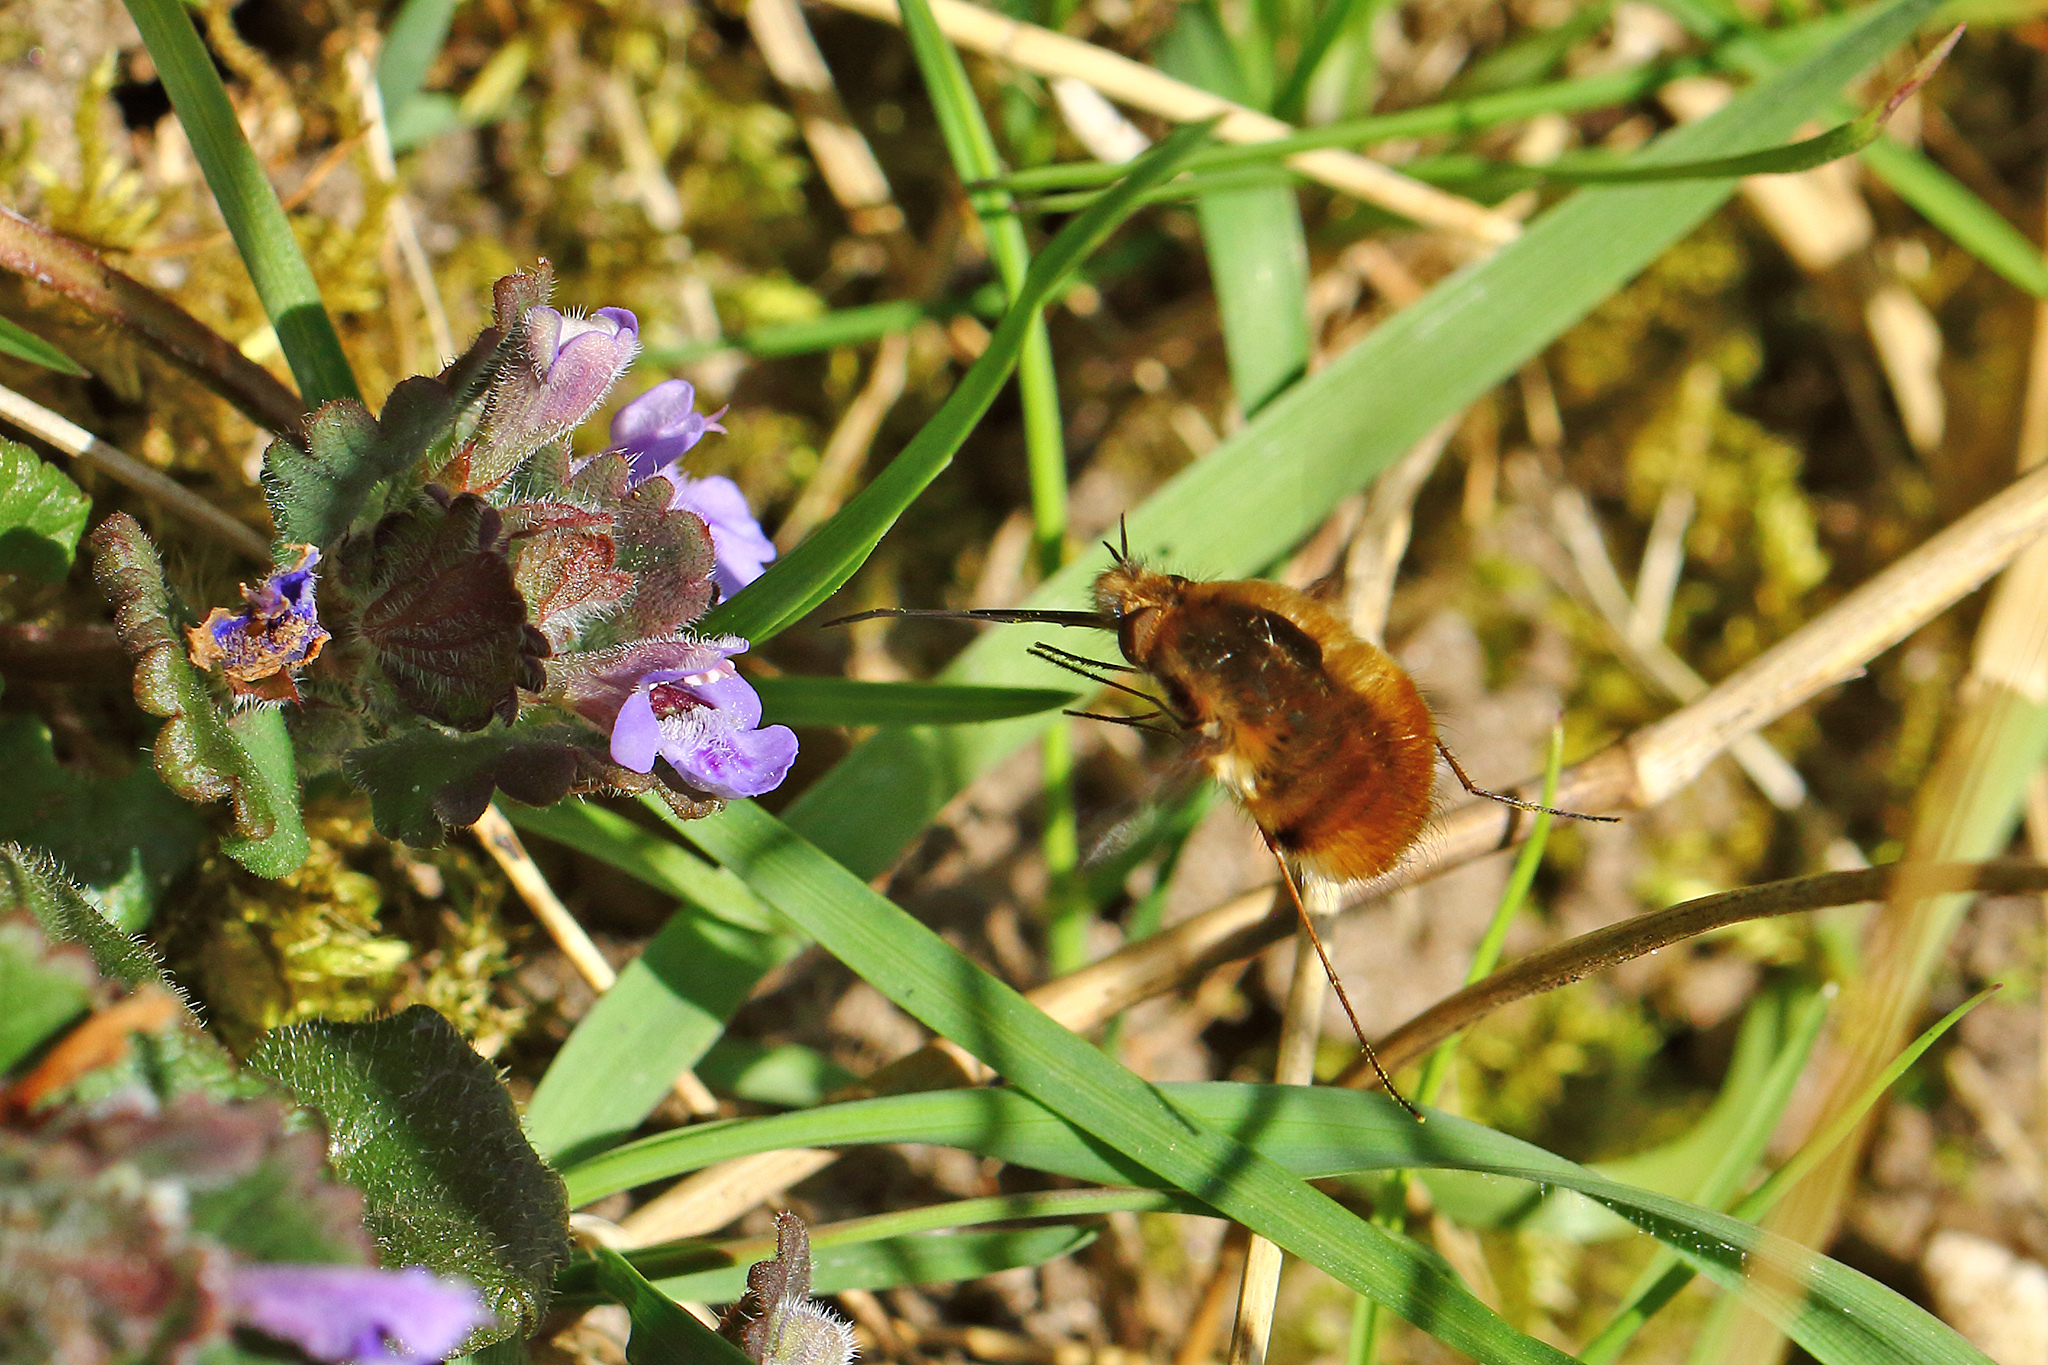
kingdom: Animalia
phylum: Arthropoda
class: Insecta
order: Diptera
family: Bombyliidae
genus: Bombylius
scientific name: Bombylius major
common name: Bee fly
